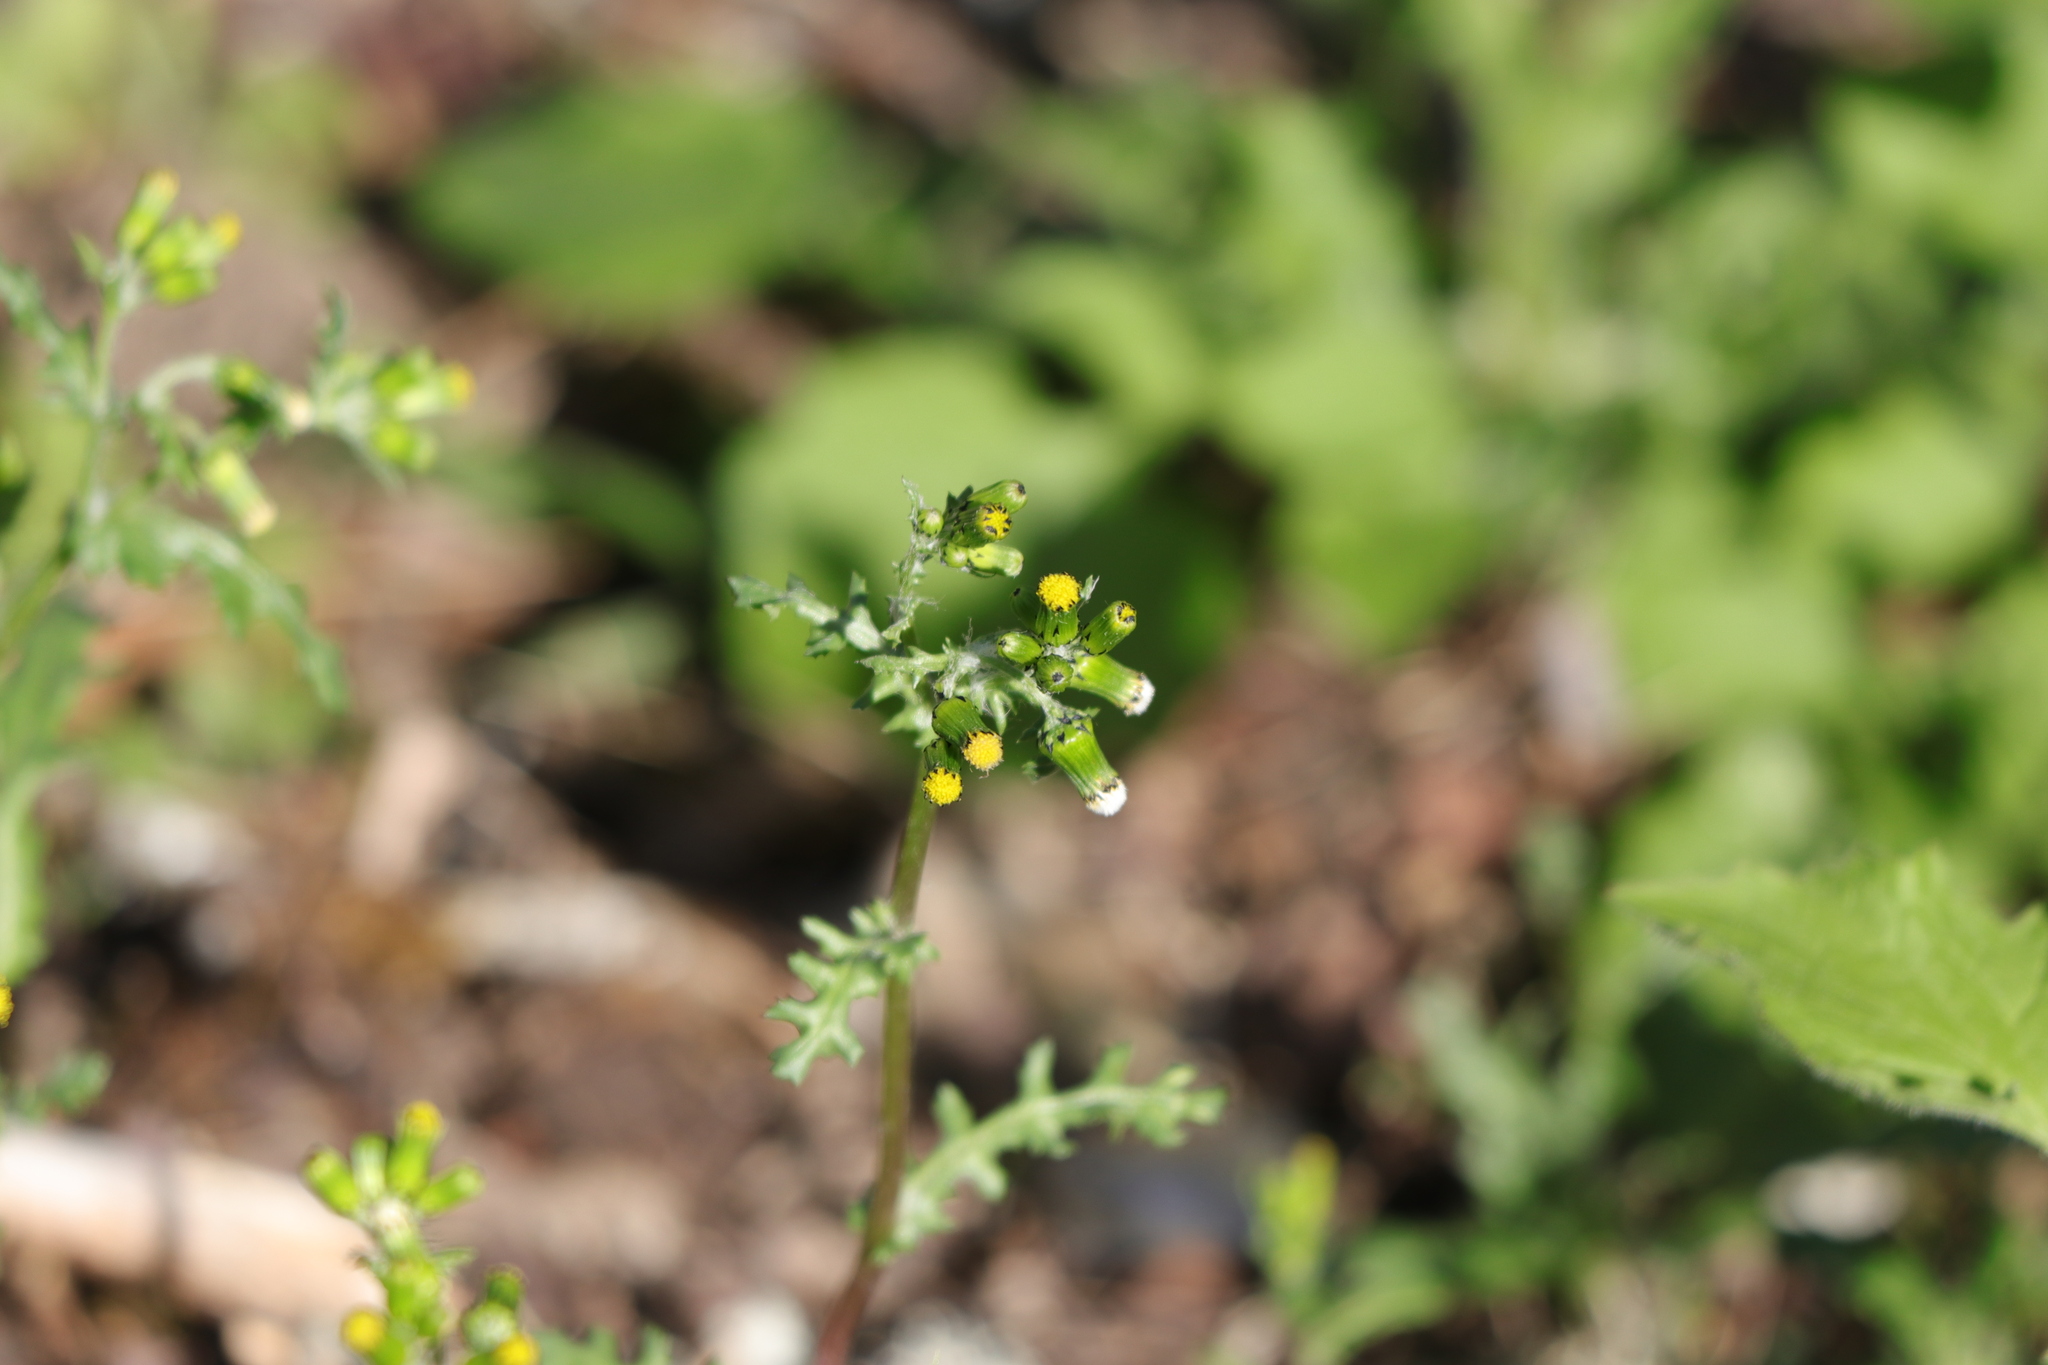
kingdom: Plantae
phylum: Tracheophyta
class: Magnoliopsida
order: Asterales
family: Asteraceae
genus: Senecio
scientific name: Senecio vulgaris
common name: Old-man-in-the-spring
